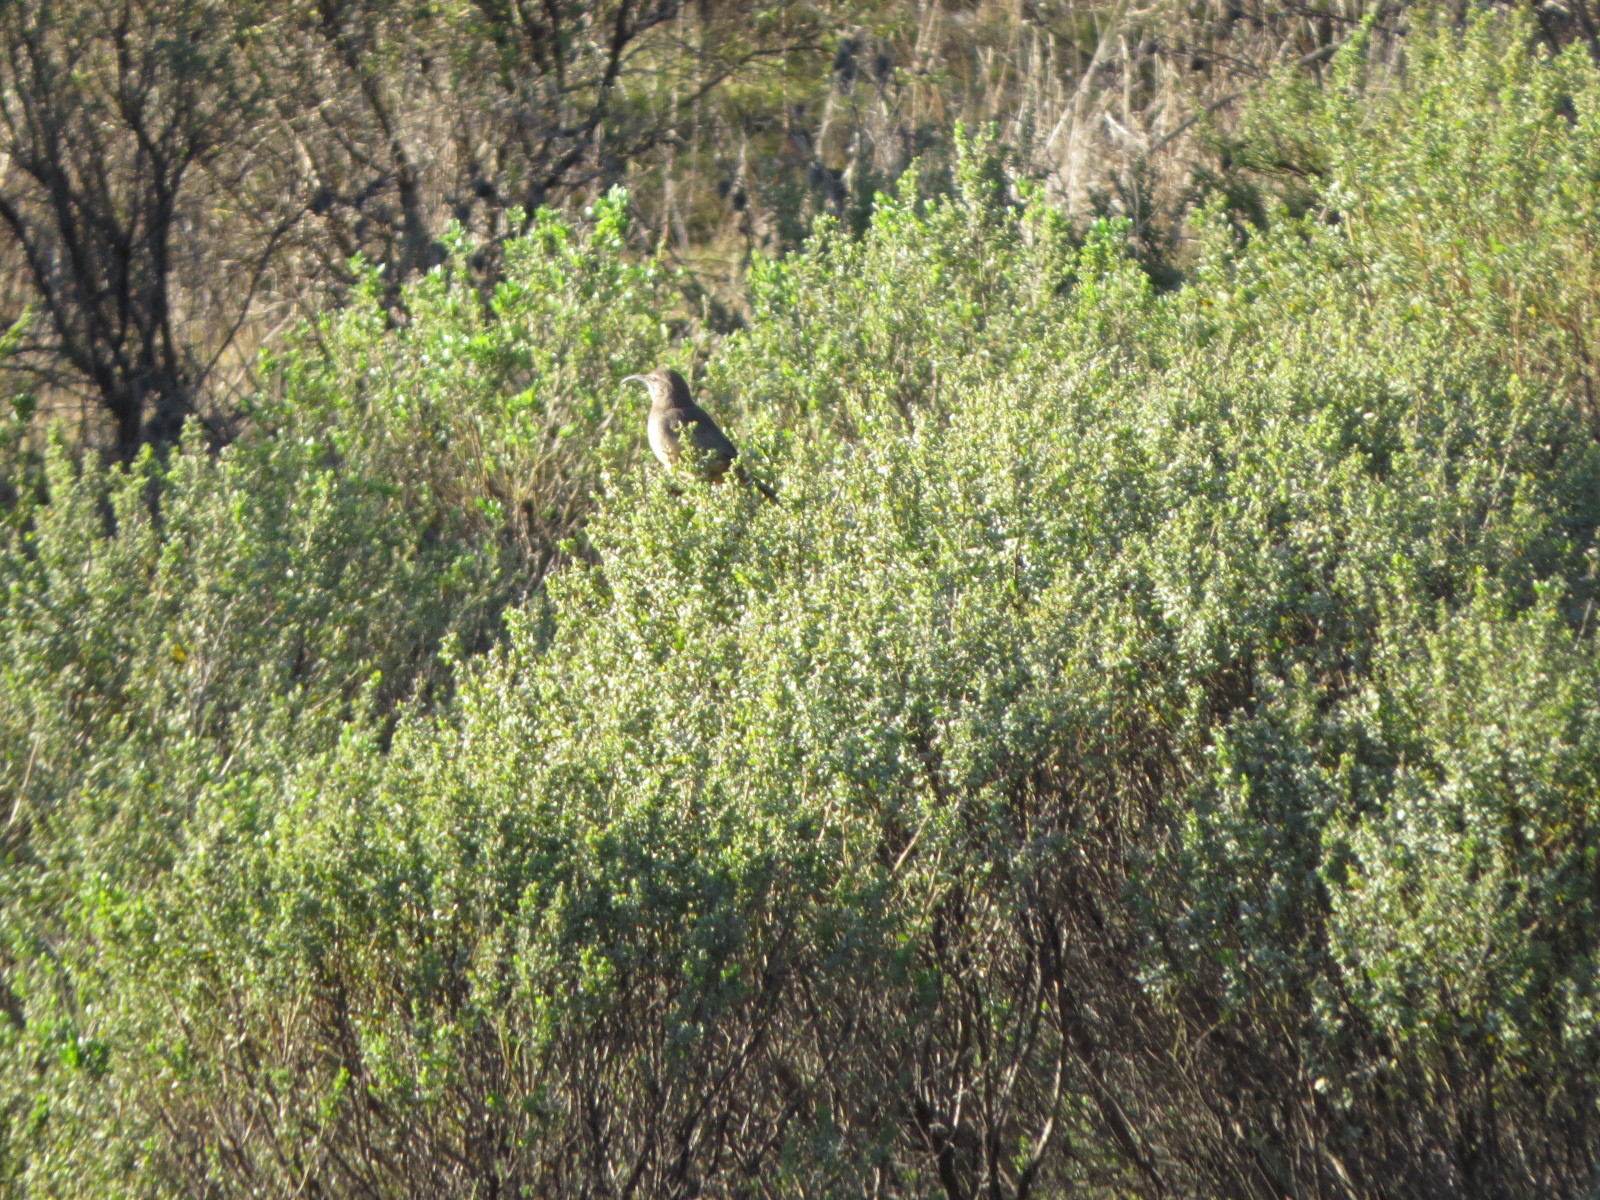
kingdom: Animalia
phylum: Chordata
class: Aves
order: Passeriformes
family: Mimidae
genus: Toxostoma
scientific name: Toxostoma redivivum
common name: California thrasher
